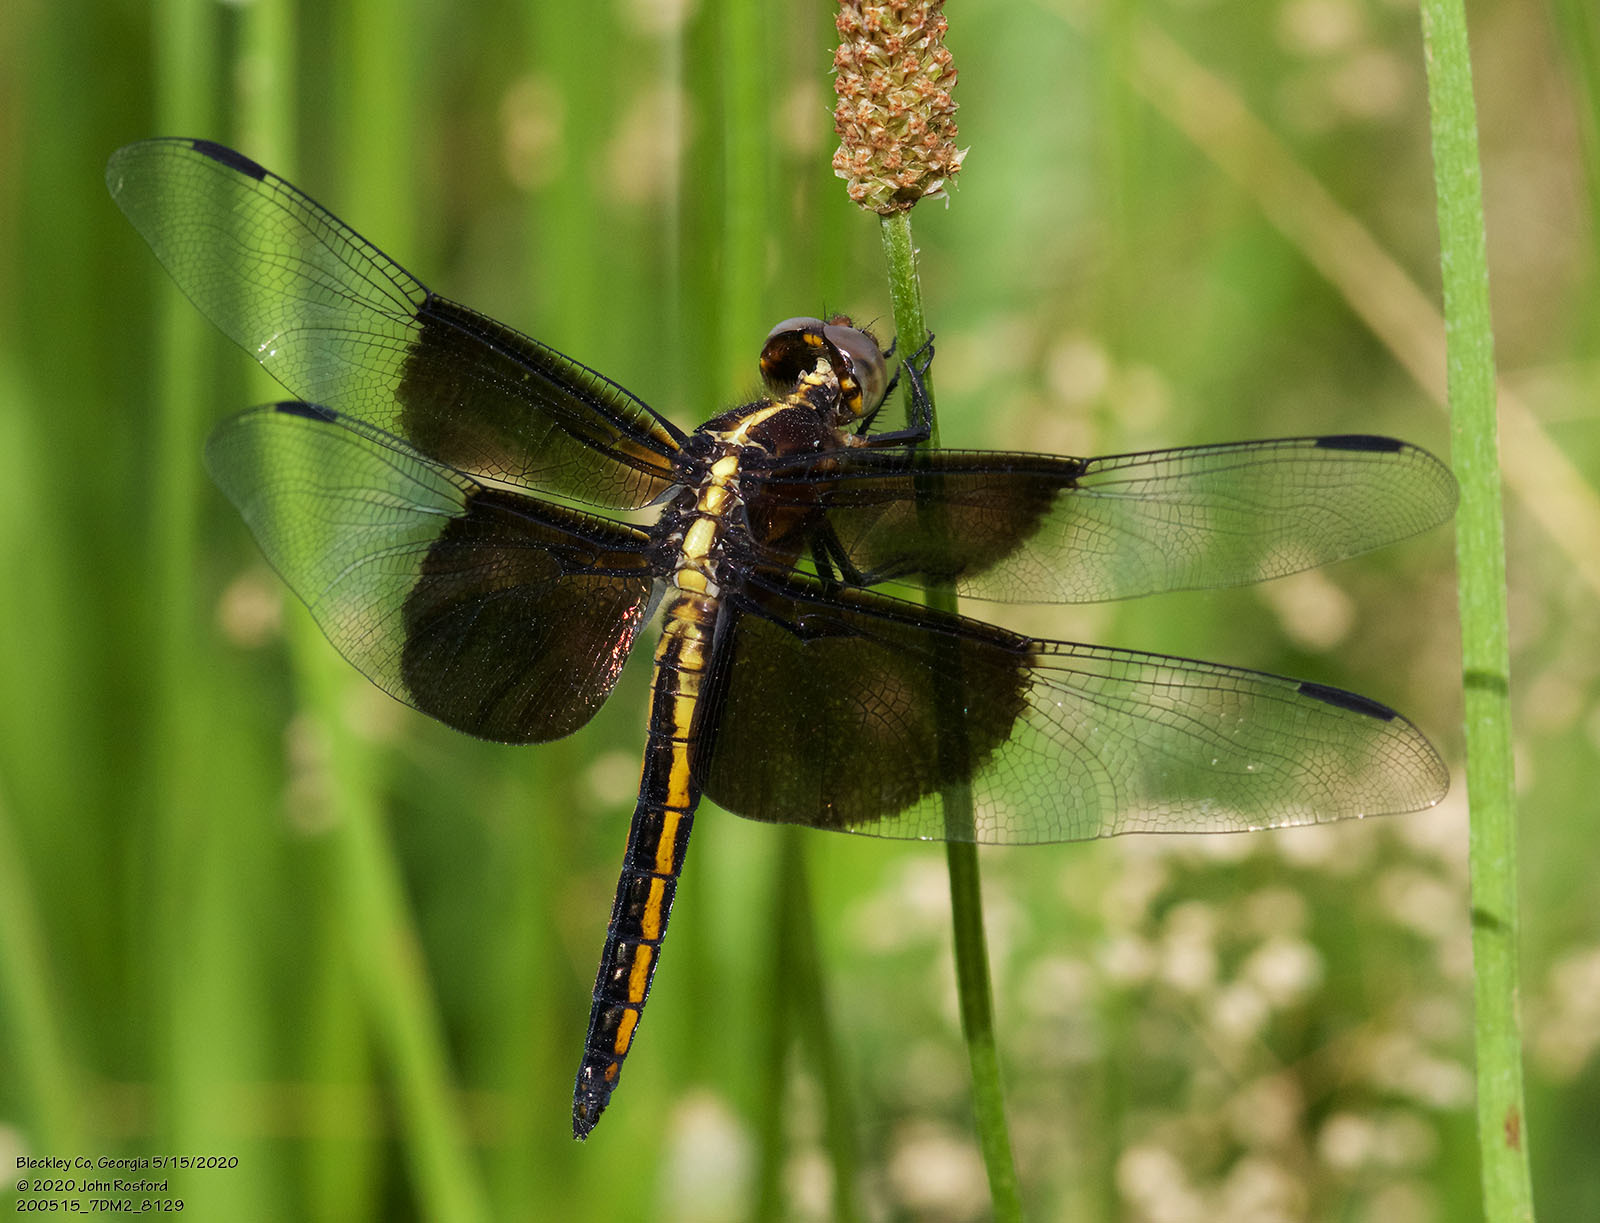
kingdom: Animalia
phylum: Arthropoda
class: Insecta
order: Odonata
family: Libellulidae
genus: Libellula
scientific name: Libellula luctuosa
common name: Widow skimmer
